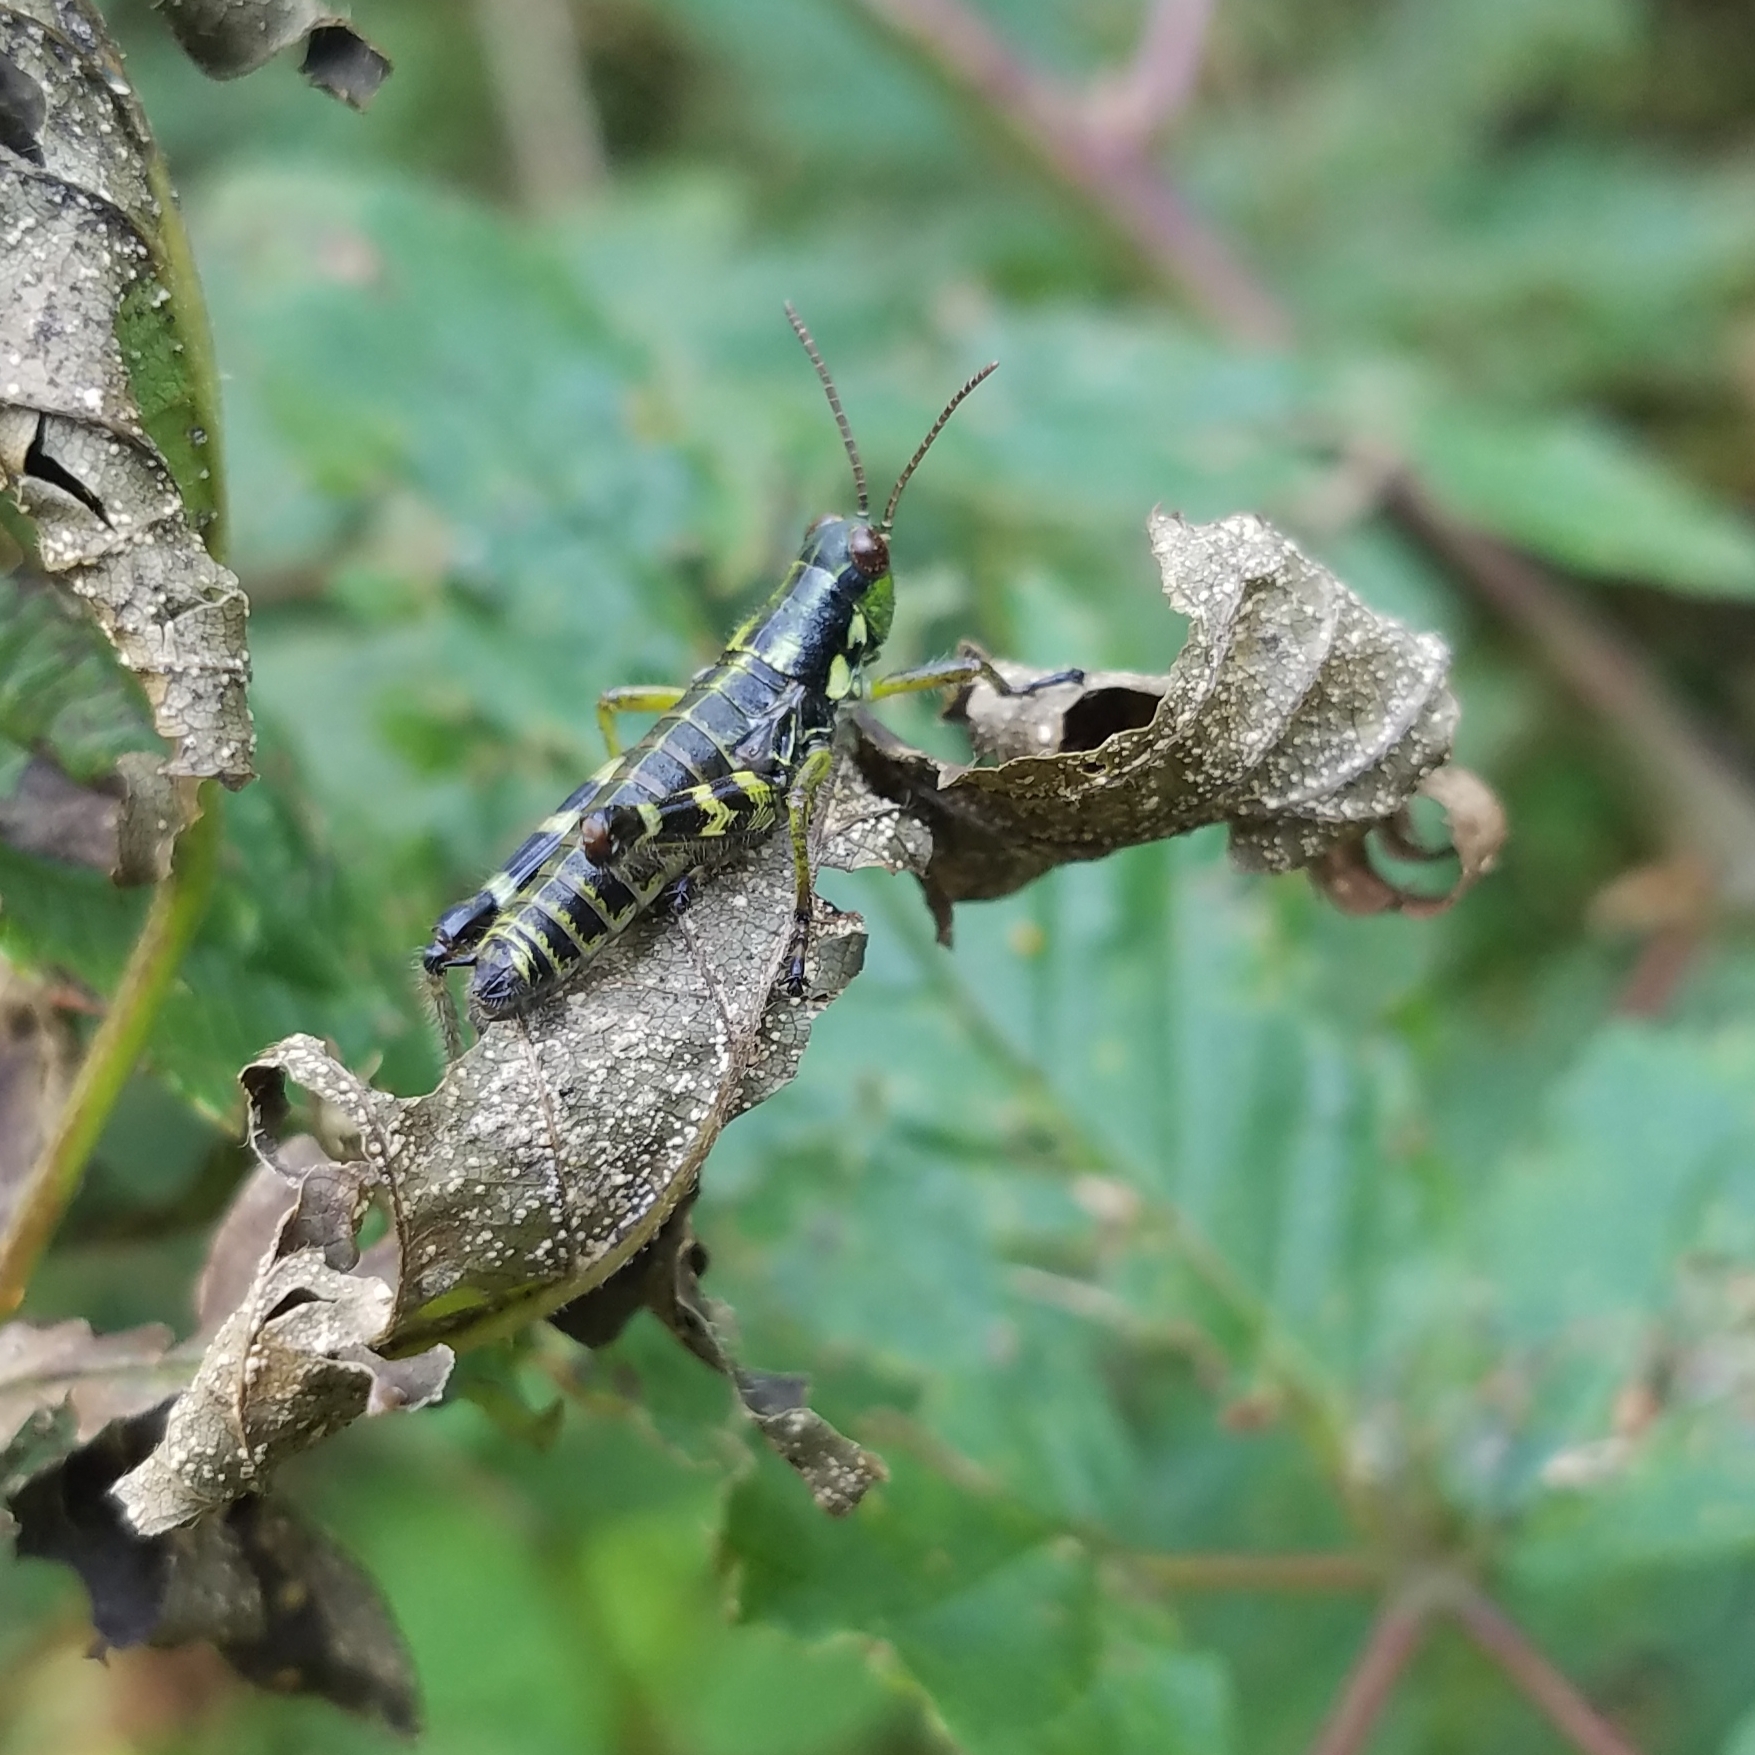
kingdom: Animalia
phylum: Arthropoda
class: Insecta
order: Orthoptera
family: Acrididae
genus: Booneacris
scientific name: Booneacris glacialis
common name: Wingless mountain grasshopper
